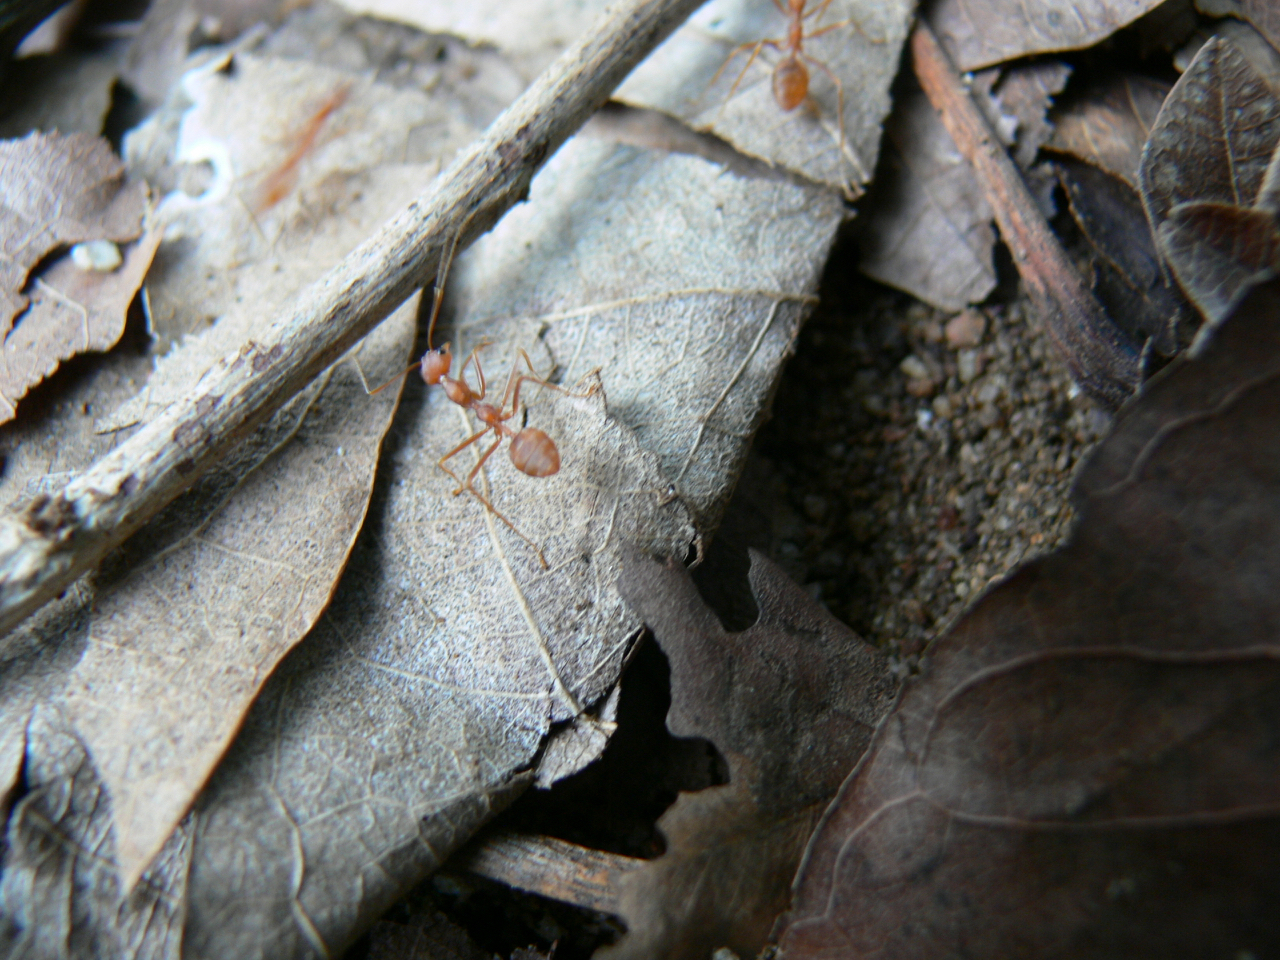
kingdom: Animalia
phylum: Arthropoda
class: Insecta
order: Hymenoptera
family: Formicidae
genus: Oecophylla
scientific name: Oecophylla smaragdina
